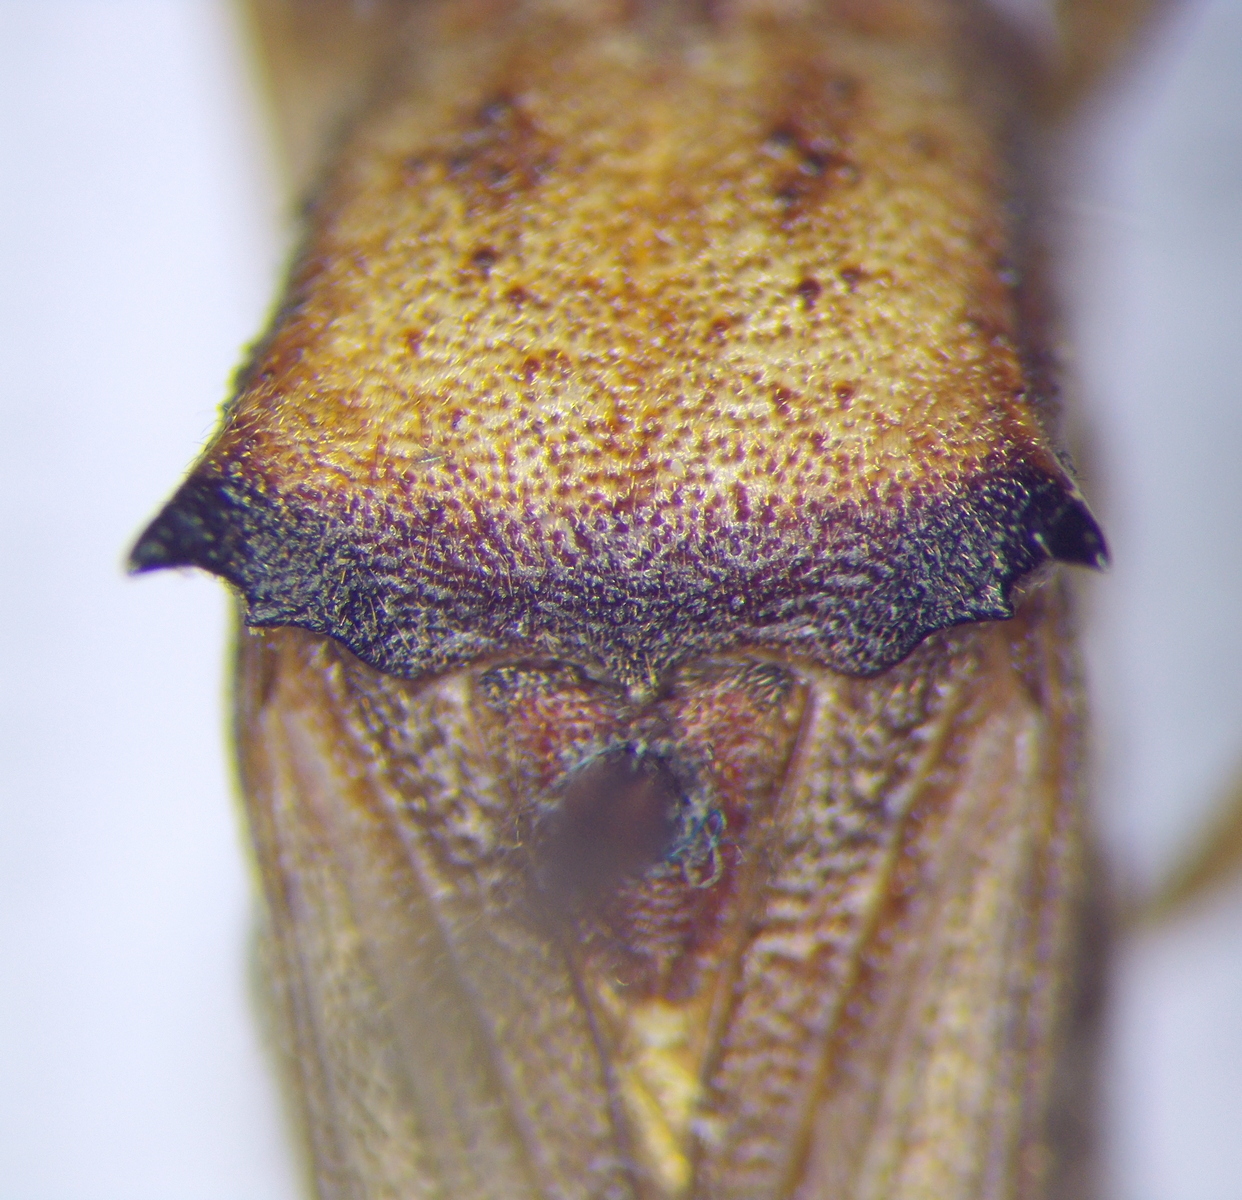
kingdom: Animalia
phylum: Arthropoda
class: Insecta
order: Hemiptera
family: Alydidae
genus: Riptortus
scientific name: Riptortus pedestris
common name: Bean bug
